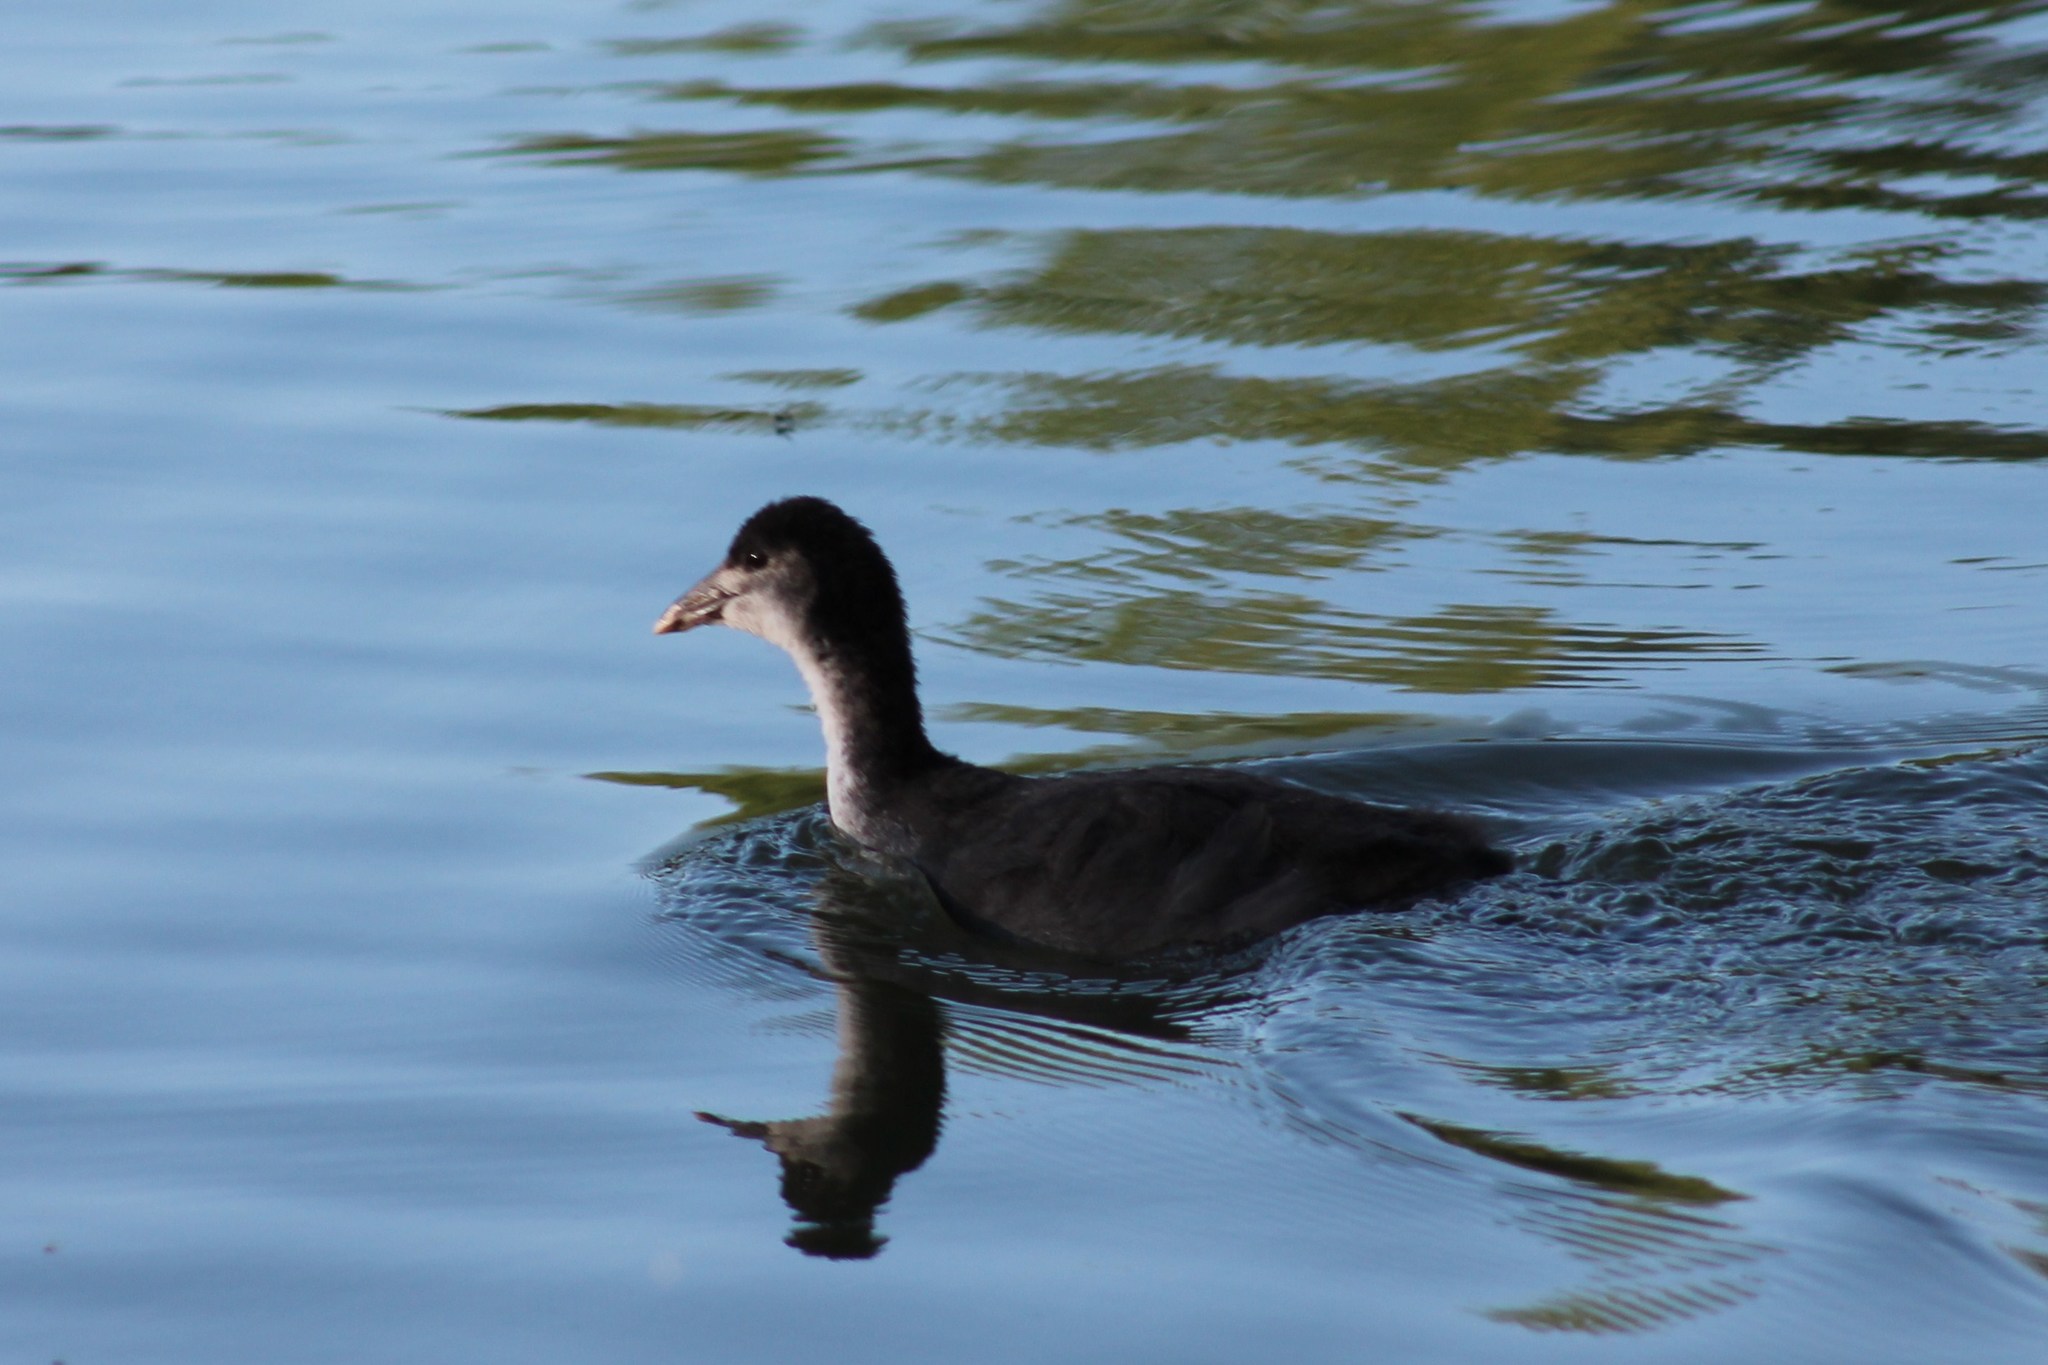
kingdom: Animalia
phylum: Chordata
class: Aves
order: Gruiformes
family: Rallidae
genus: Fulica
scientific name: Fulica atra
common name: Eurasian coot
